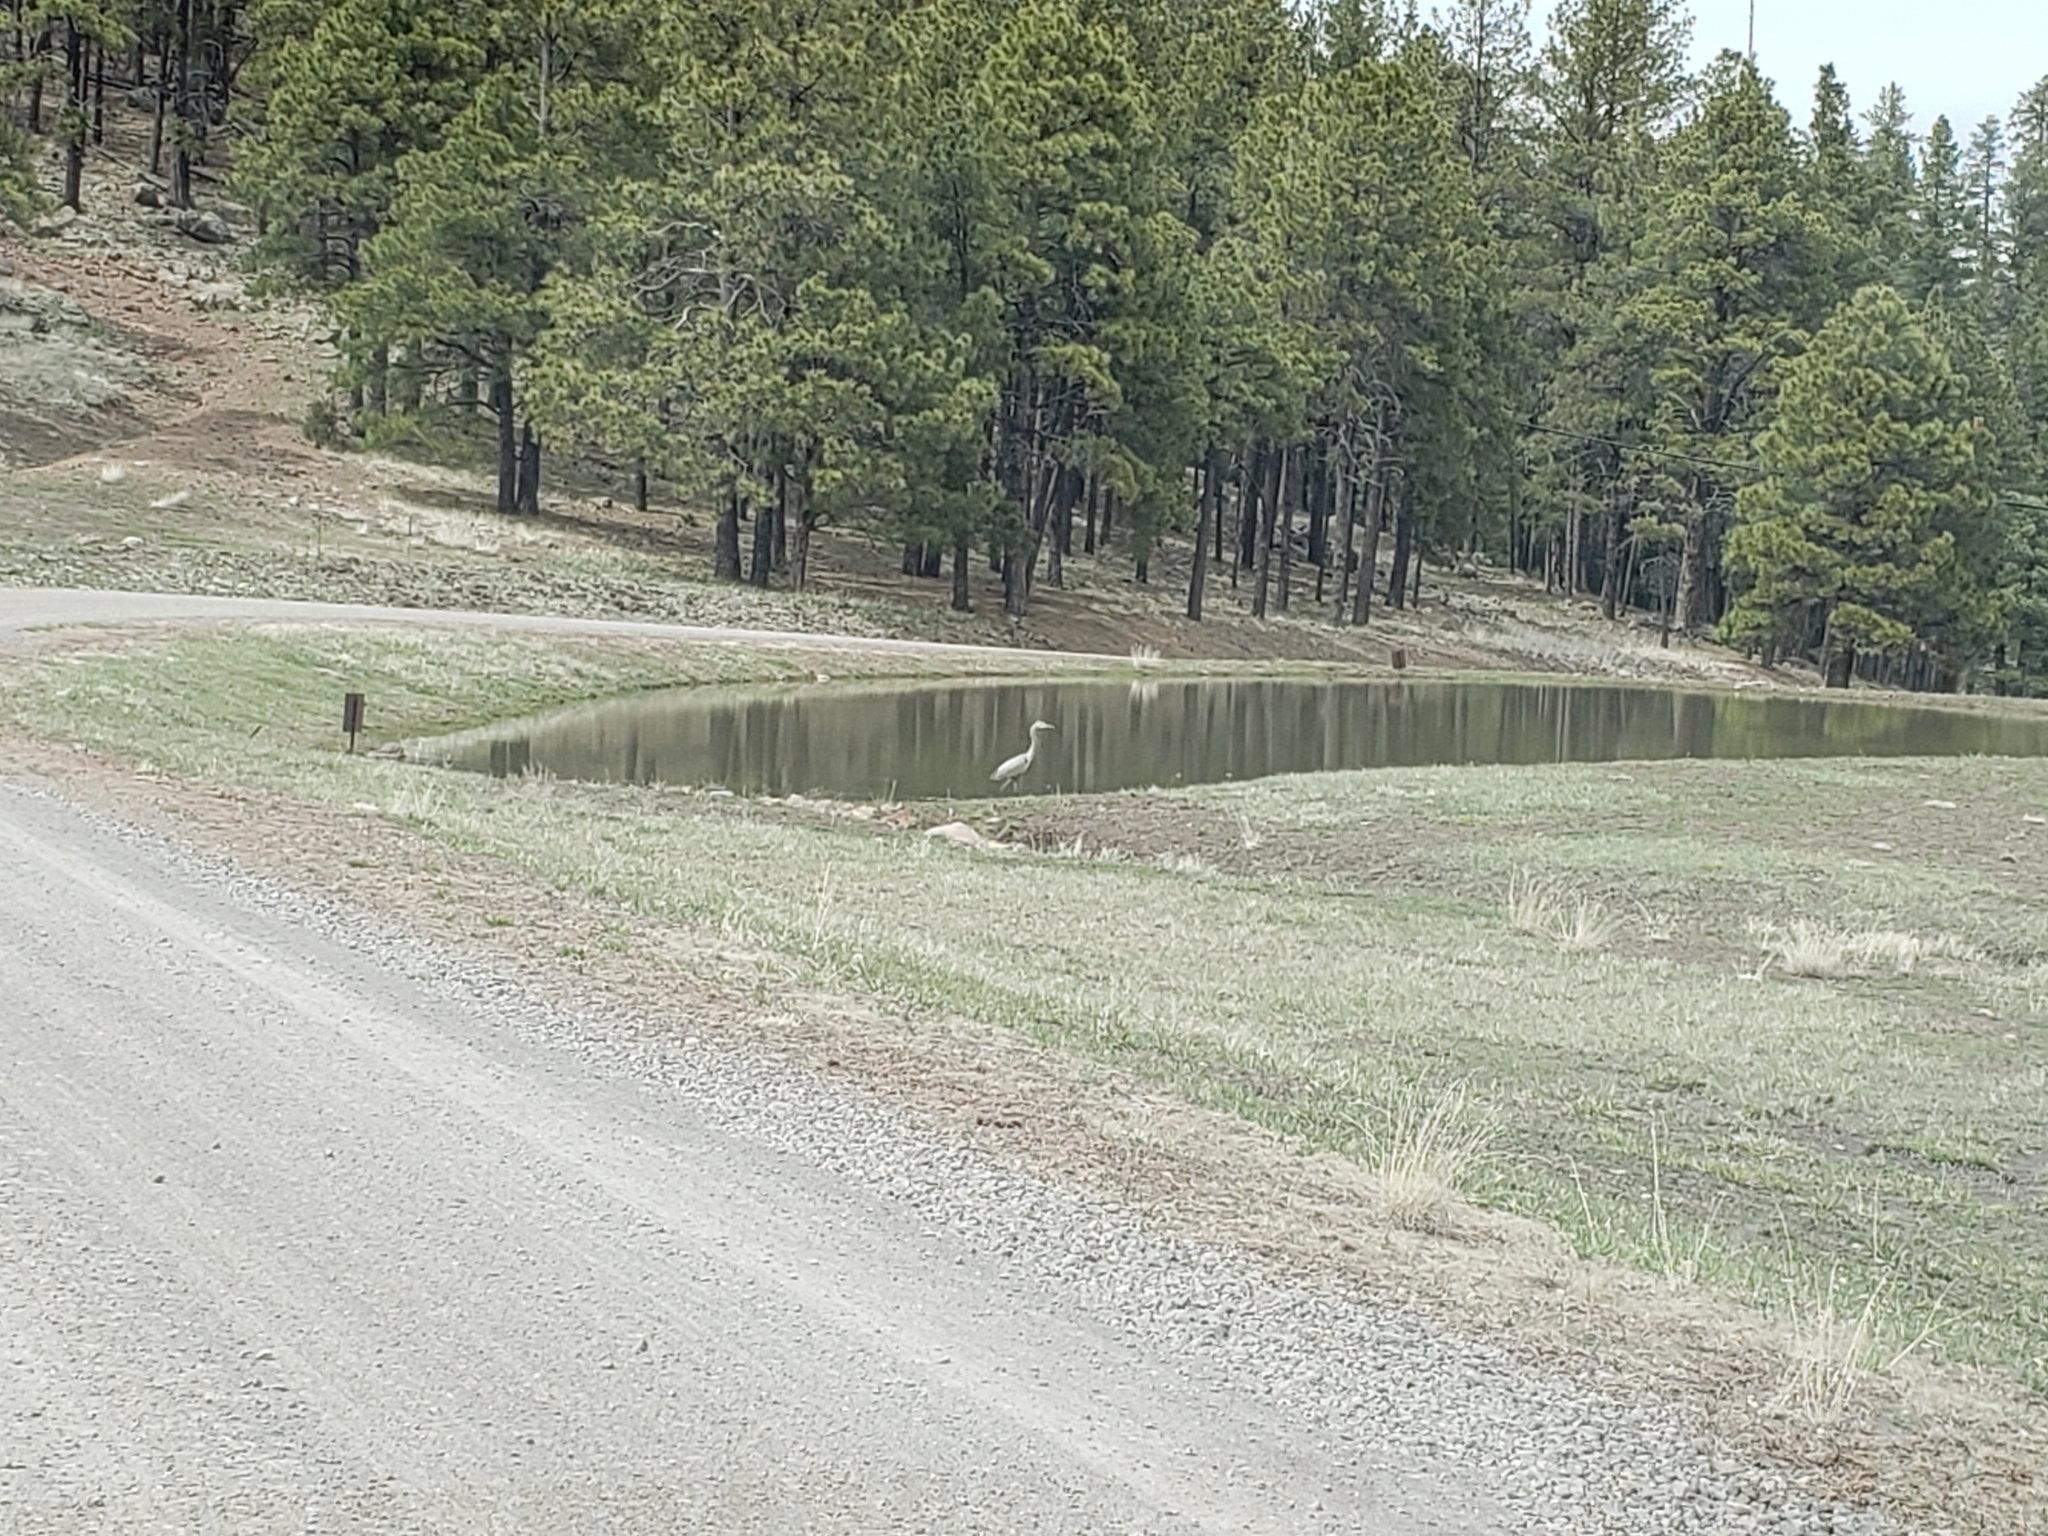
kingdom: Animalia
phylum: Chordata
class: Aves
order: Pelecaniformes
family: Ardeidae
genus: Ardea
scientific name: Ardea herodias
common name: Great blue heron
